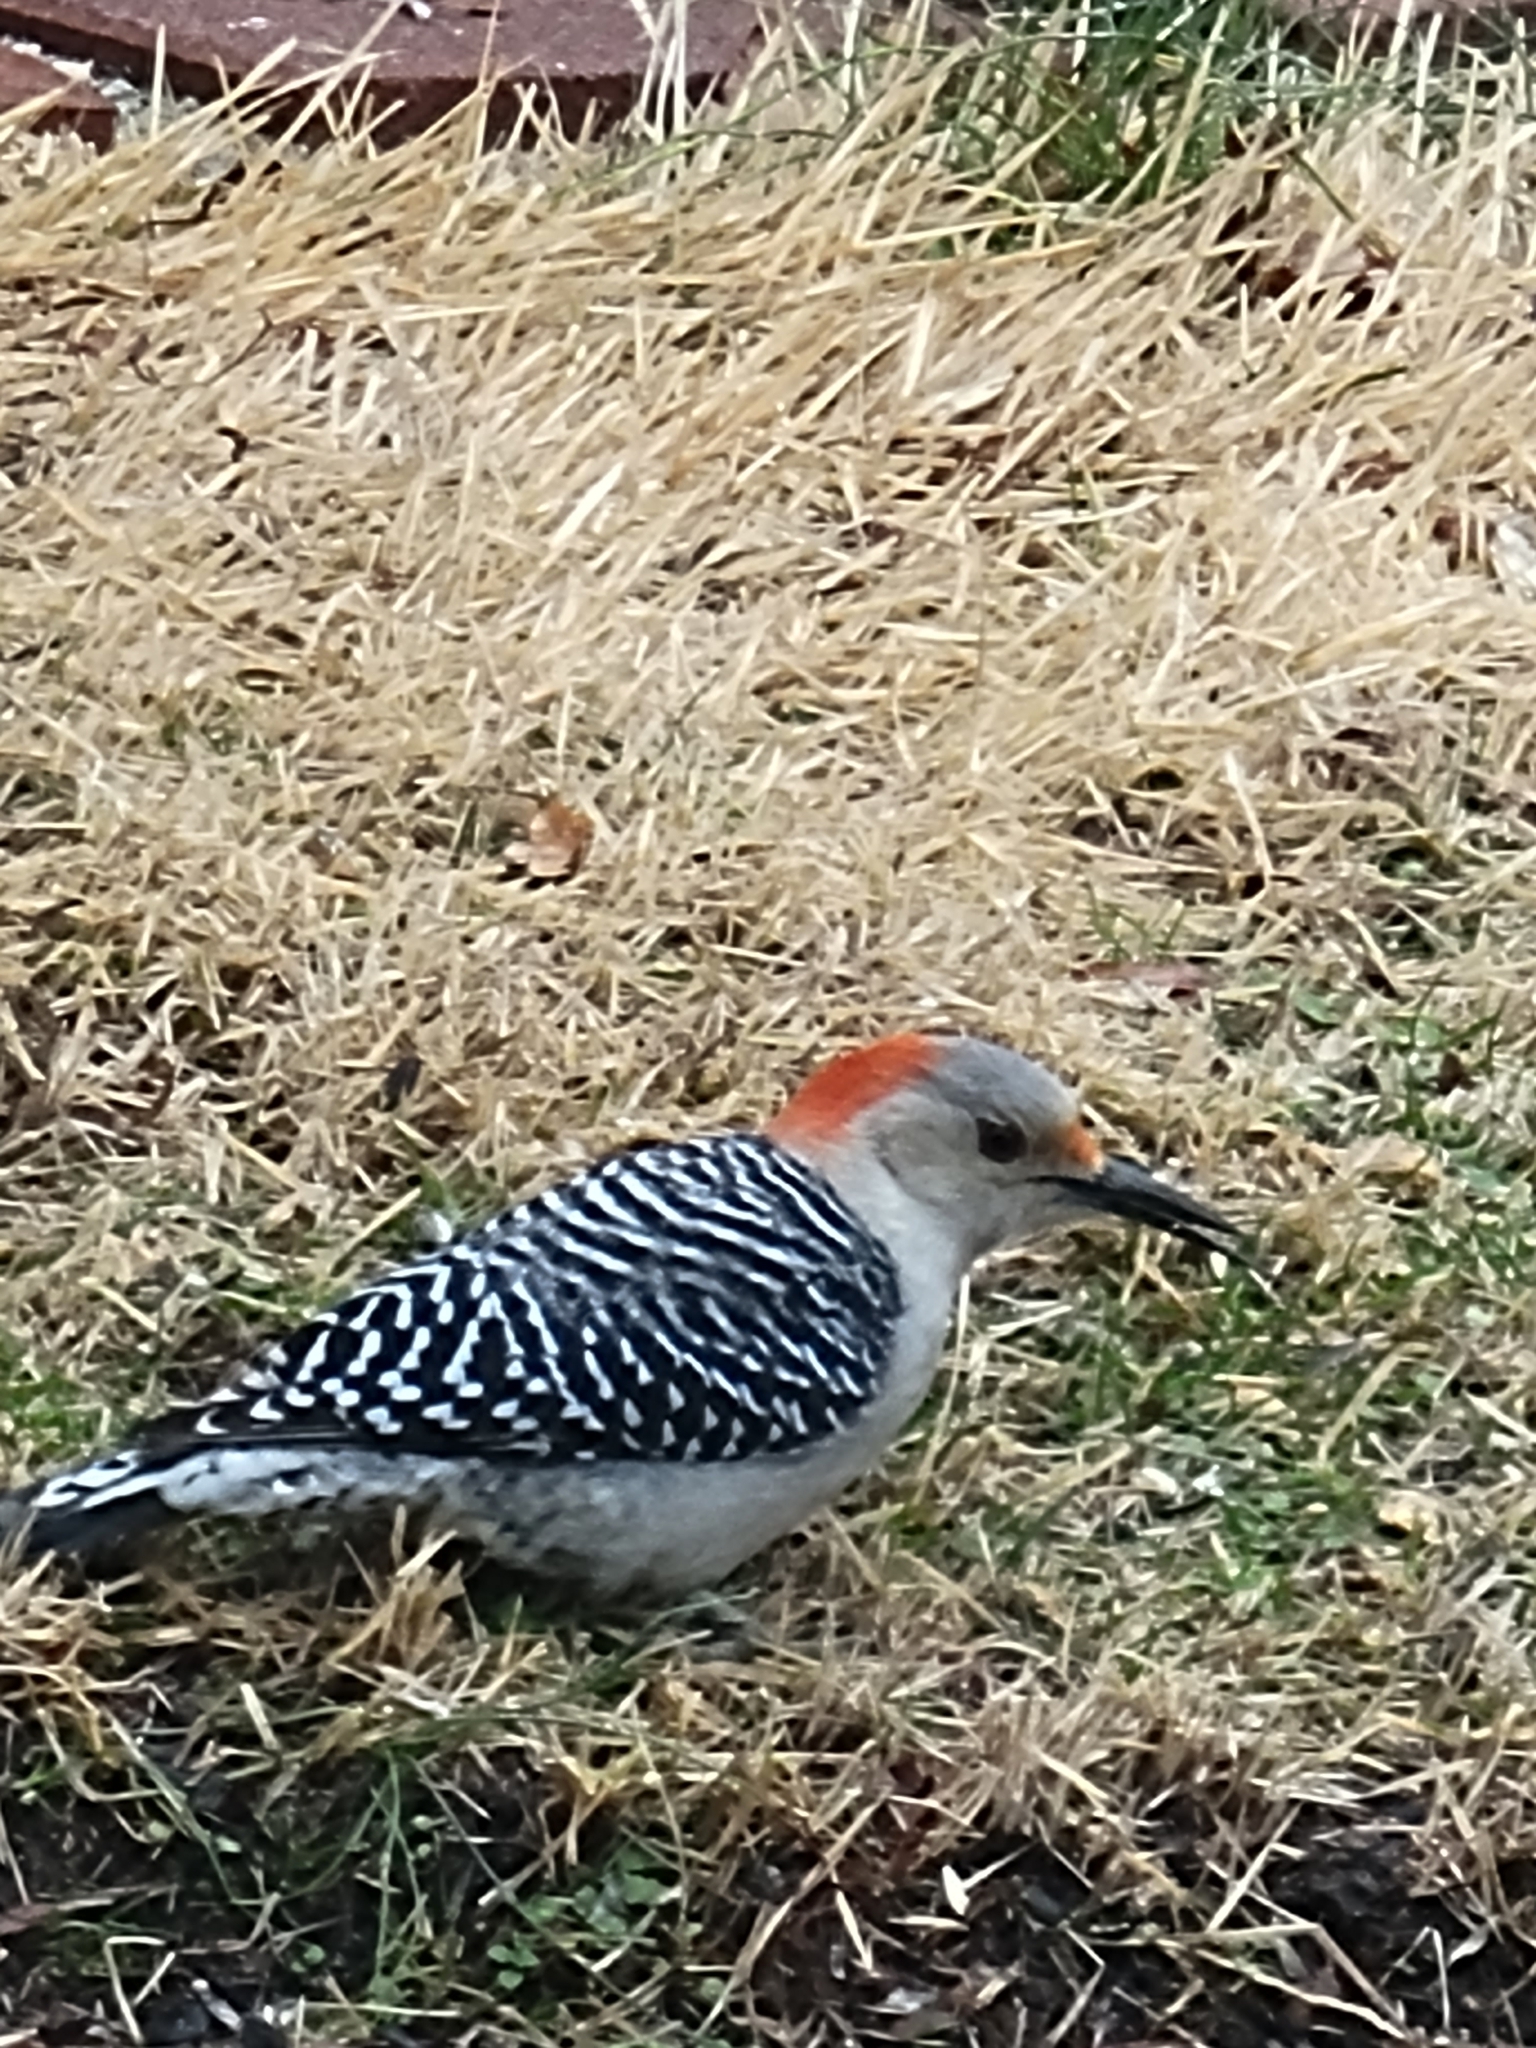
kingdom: Animalia
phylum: Chordata
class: Aves
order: Piciformes
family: Picidae
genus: Melanerpes
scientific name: Melanerpes carolinus
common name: Red-bellied woodpecker
